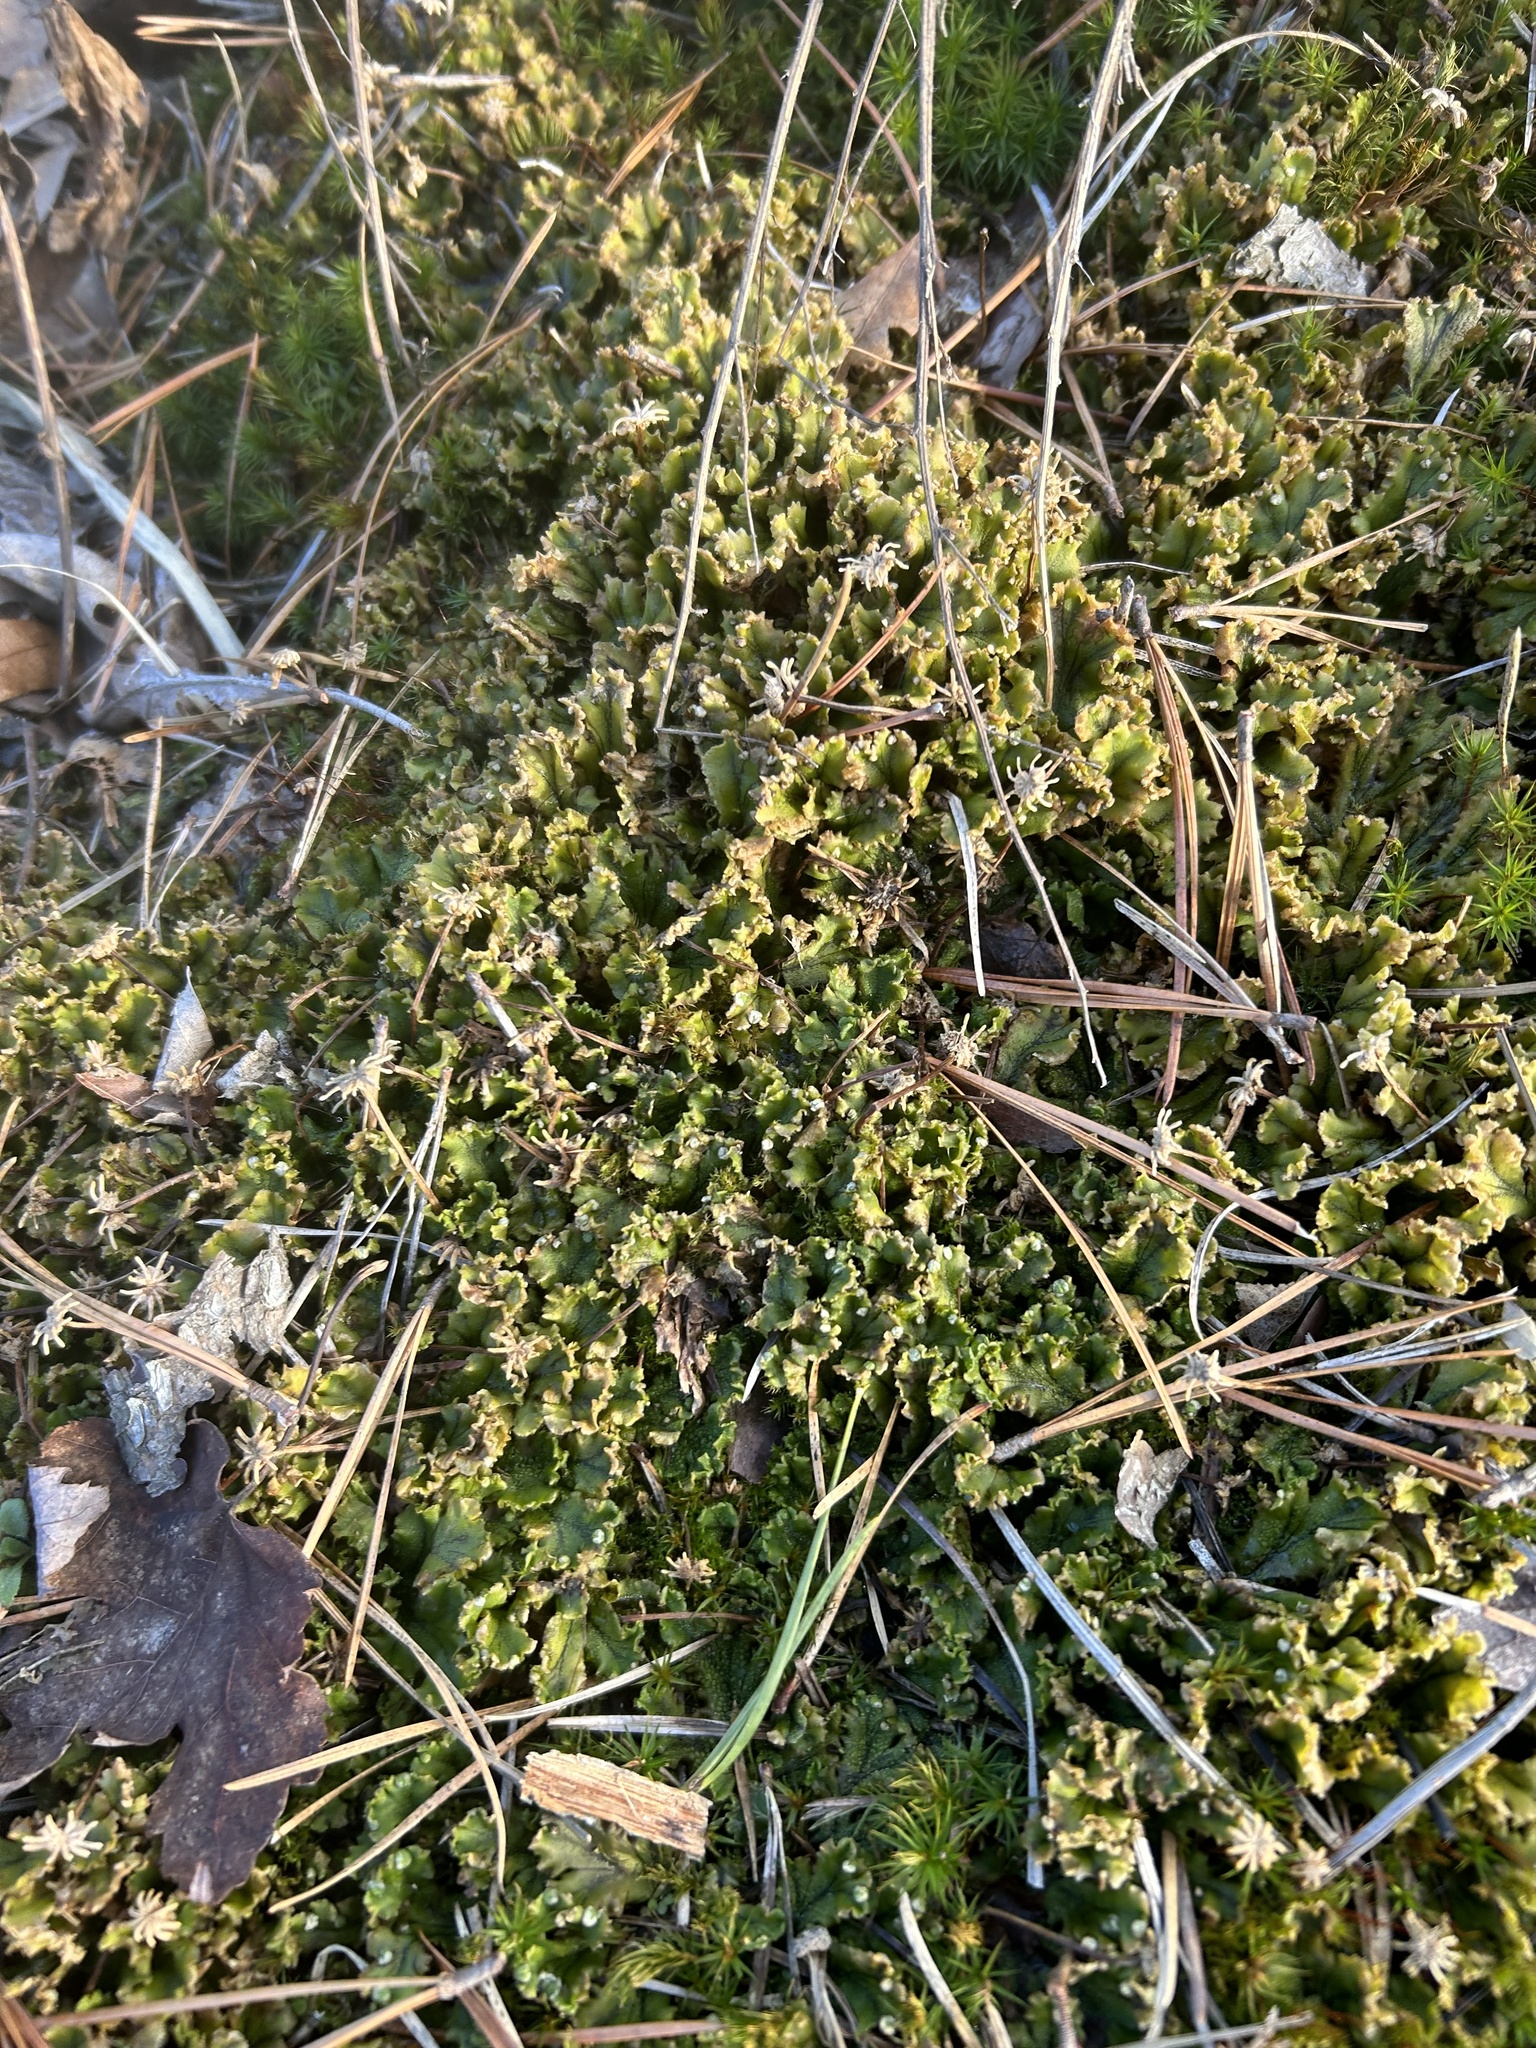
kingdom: Plantae
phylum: Marchantiophyta
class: Marchantiopsida
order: Marchantiales
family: Marchantiaceae
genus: Marchantia
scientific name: Marchantia polymorpha
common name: Common liverwort
